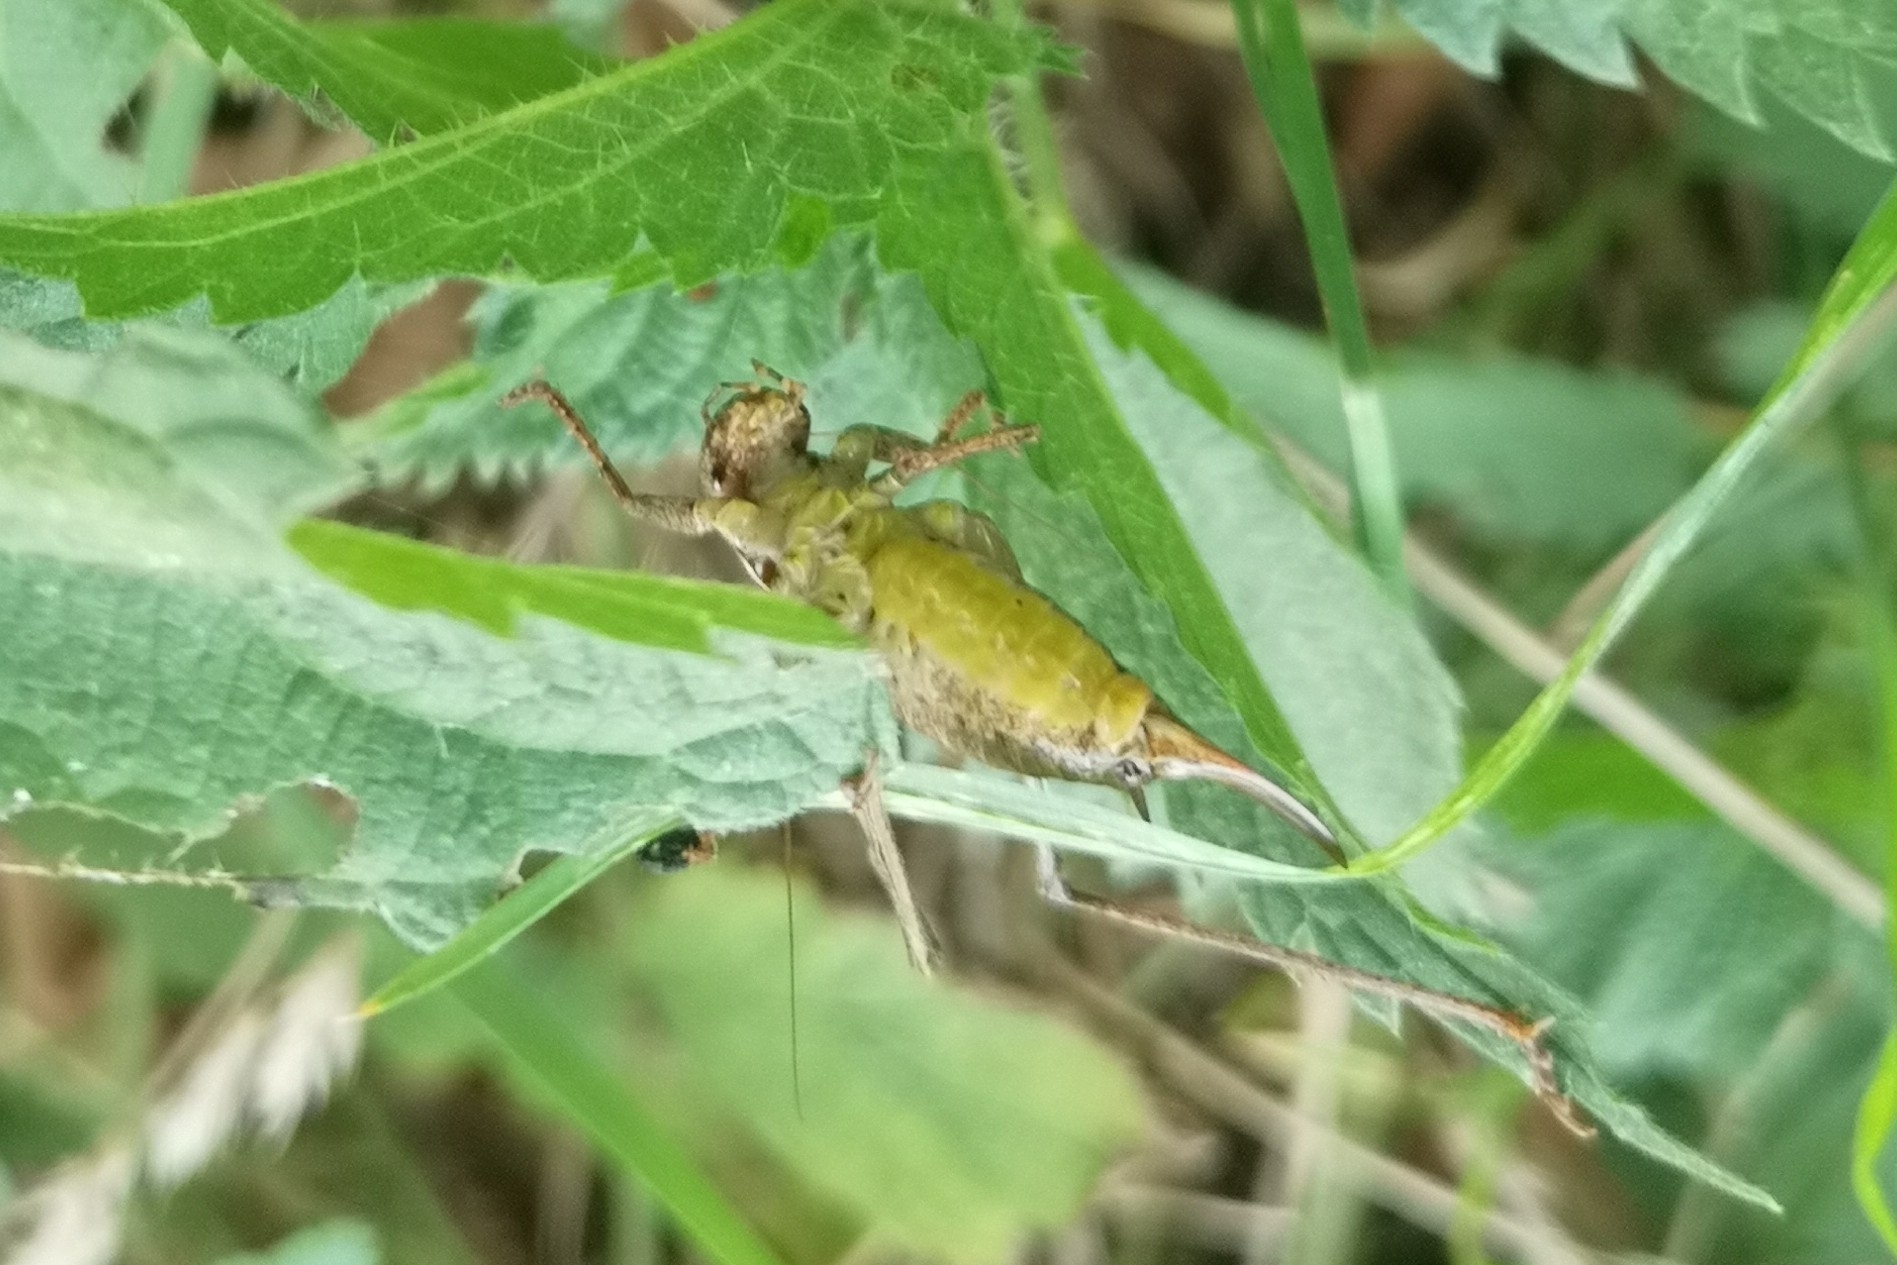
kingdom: Animalia
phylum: Arthropoda
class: Insecta
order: Orthoptera
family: Tettigoniidae
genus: Pholidoptera
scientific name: Pholidoptera griseoaptera
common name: Dark bush-cricket
